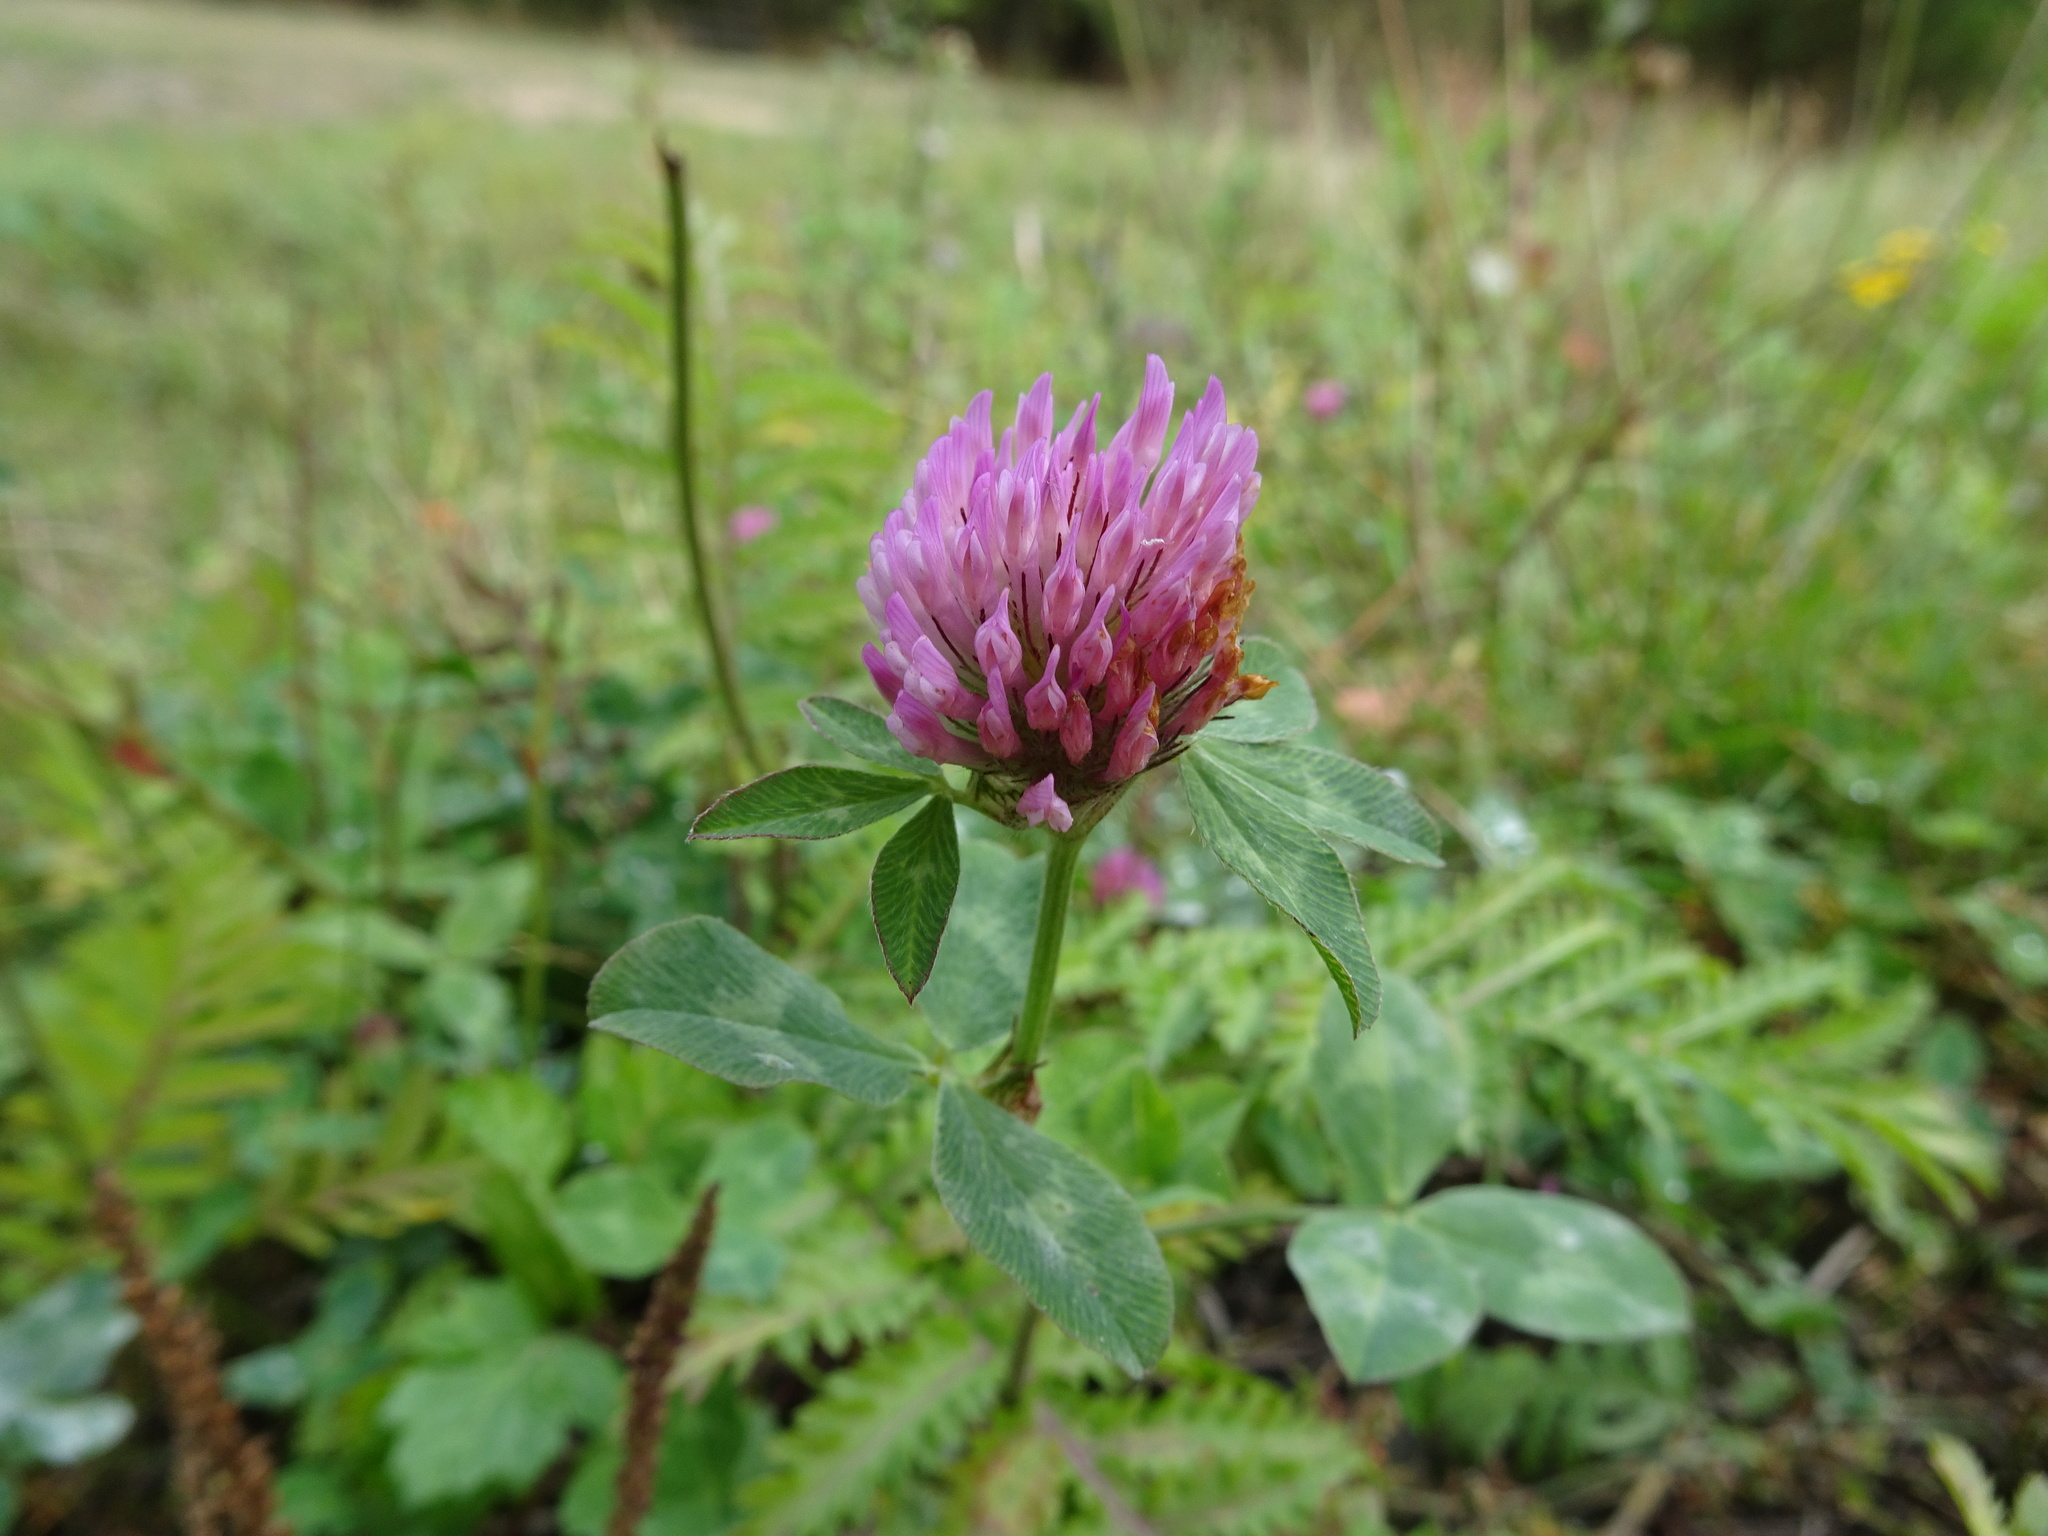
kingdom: Plantae
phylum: Tracheophyta
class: Magnoliopsida
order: Fabales
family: Fabaceae
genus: Trifolium
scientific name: Trifolium pratense
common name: Red clover
